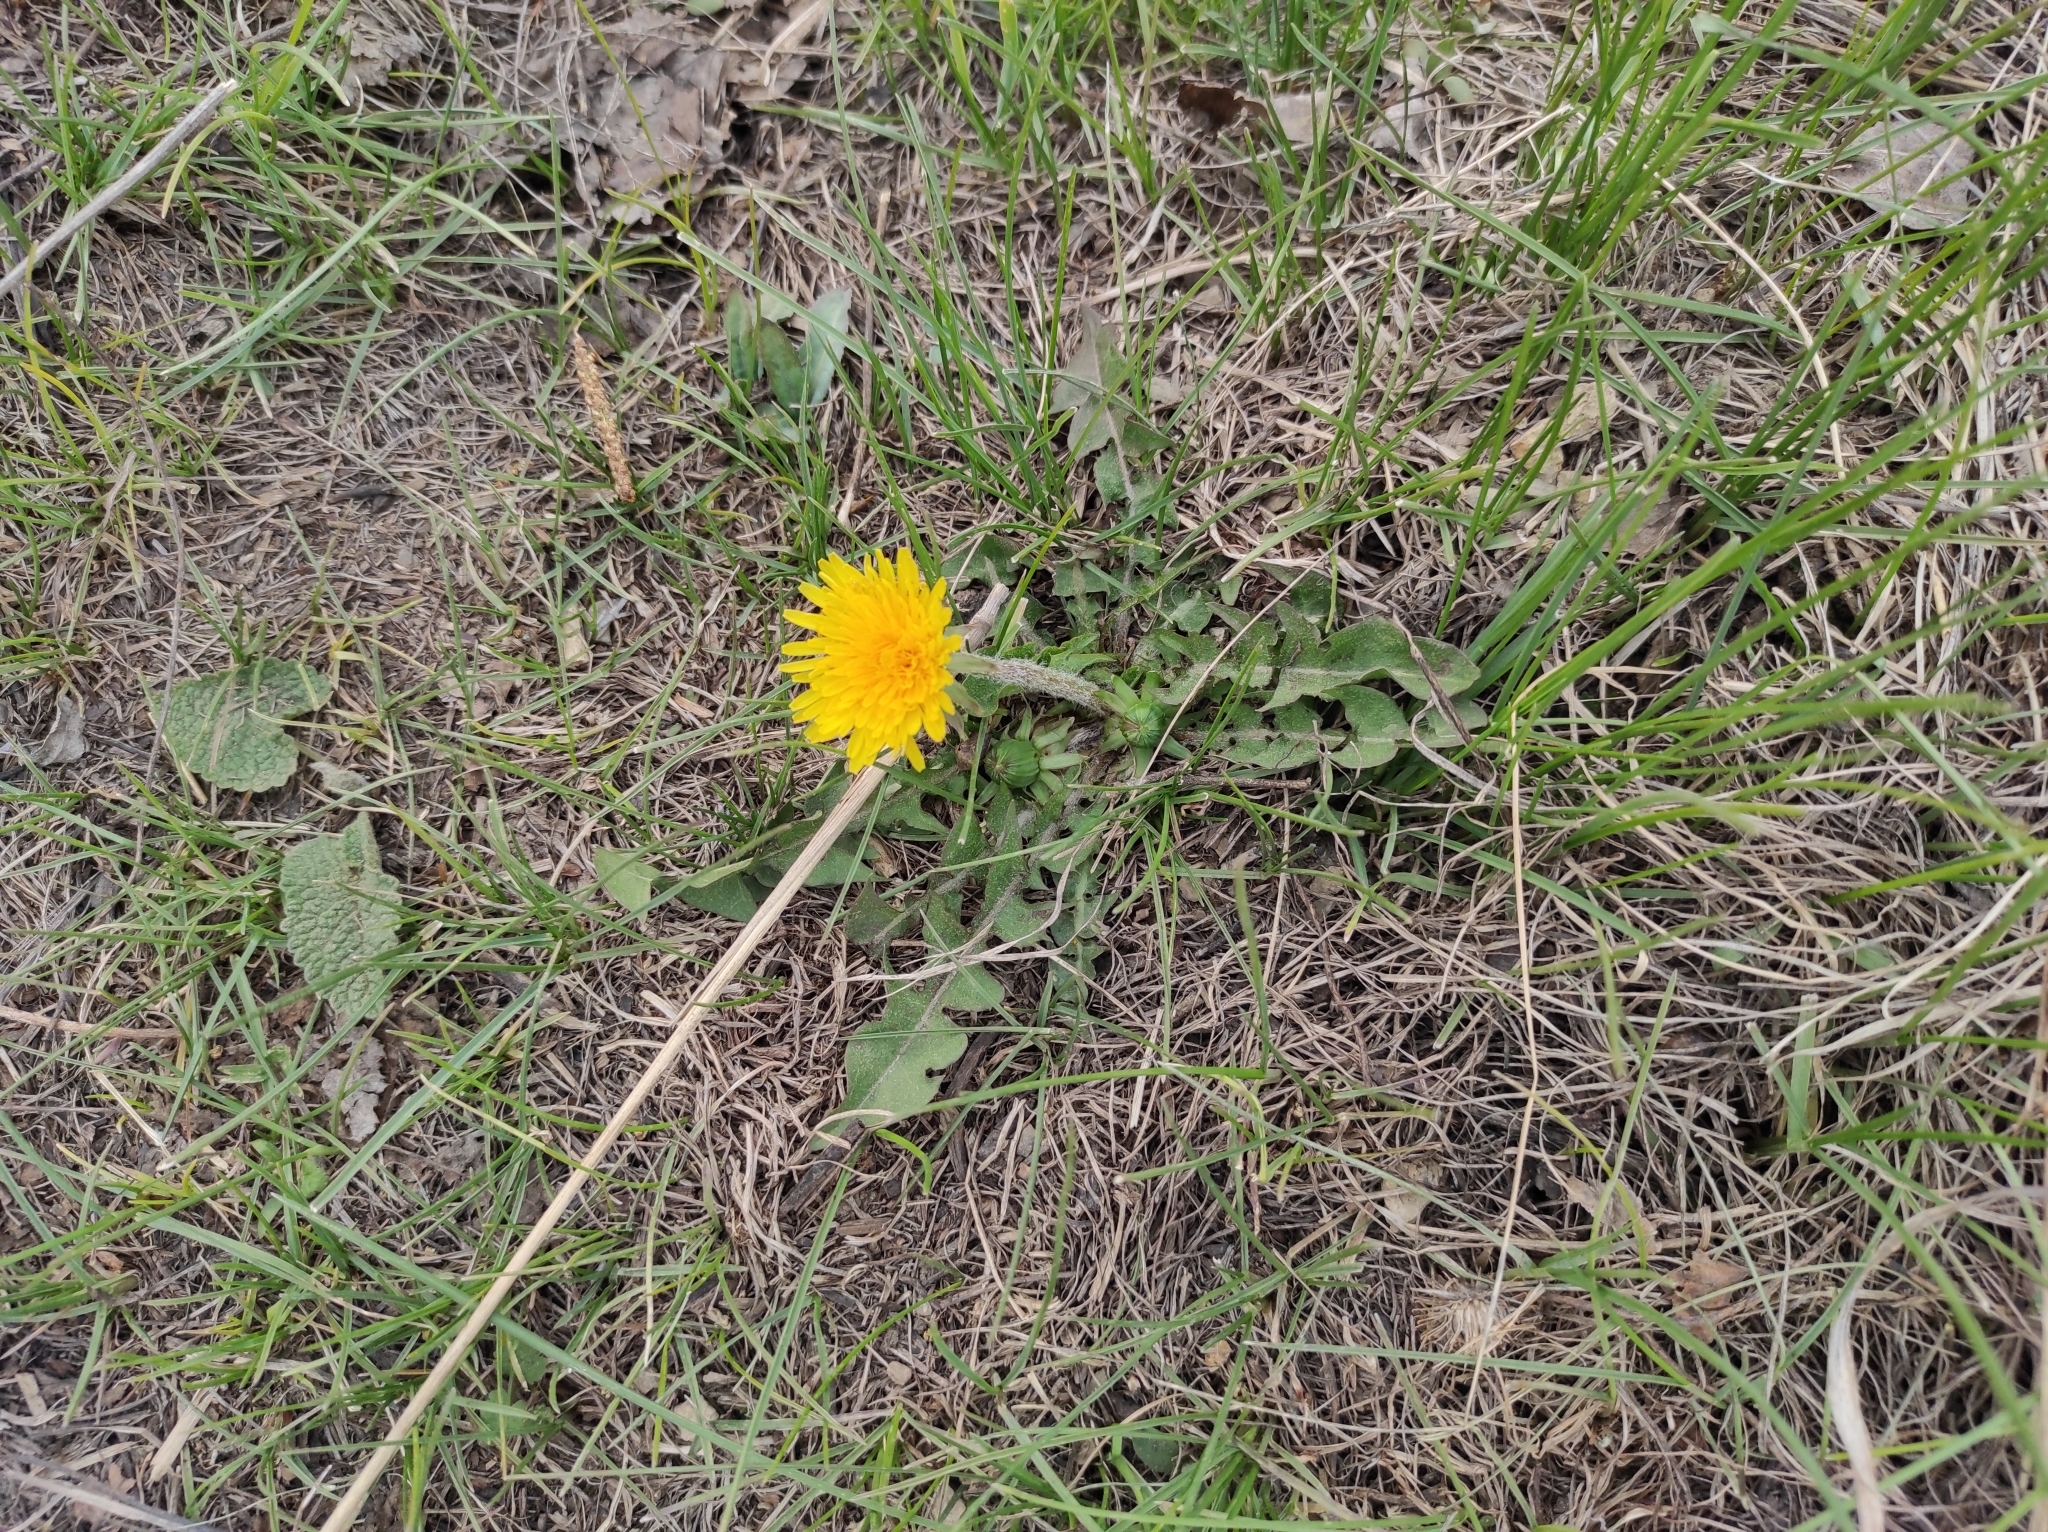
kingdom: Plantae
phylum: Tracheophyta
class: Magnoliopsida
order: Asterales
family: Asteraceae
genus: Taraxacum
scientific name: Taraxacum officinale
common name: Common dandelion
